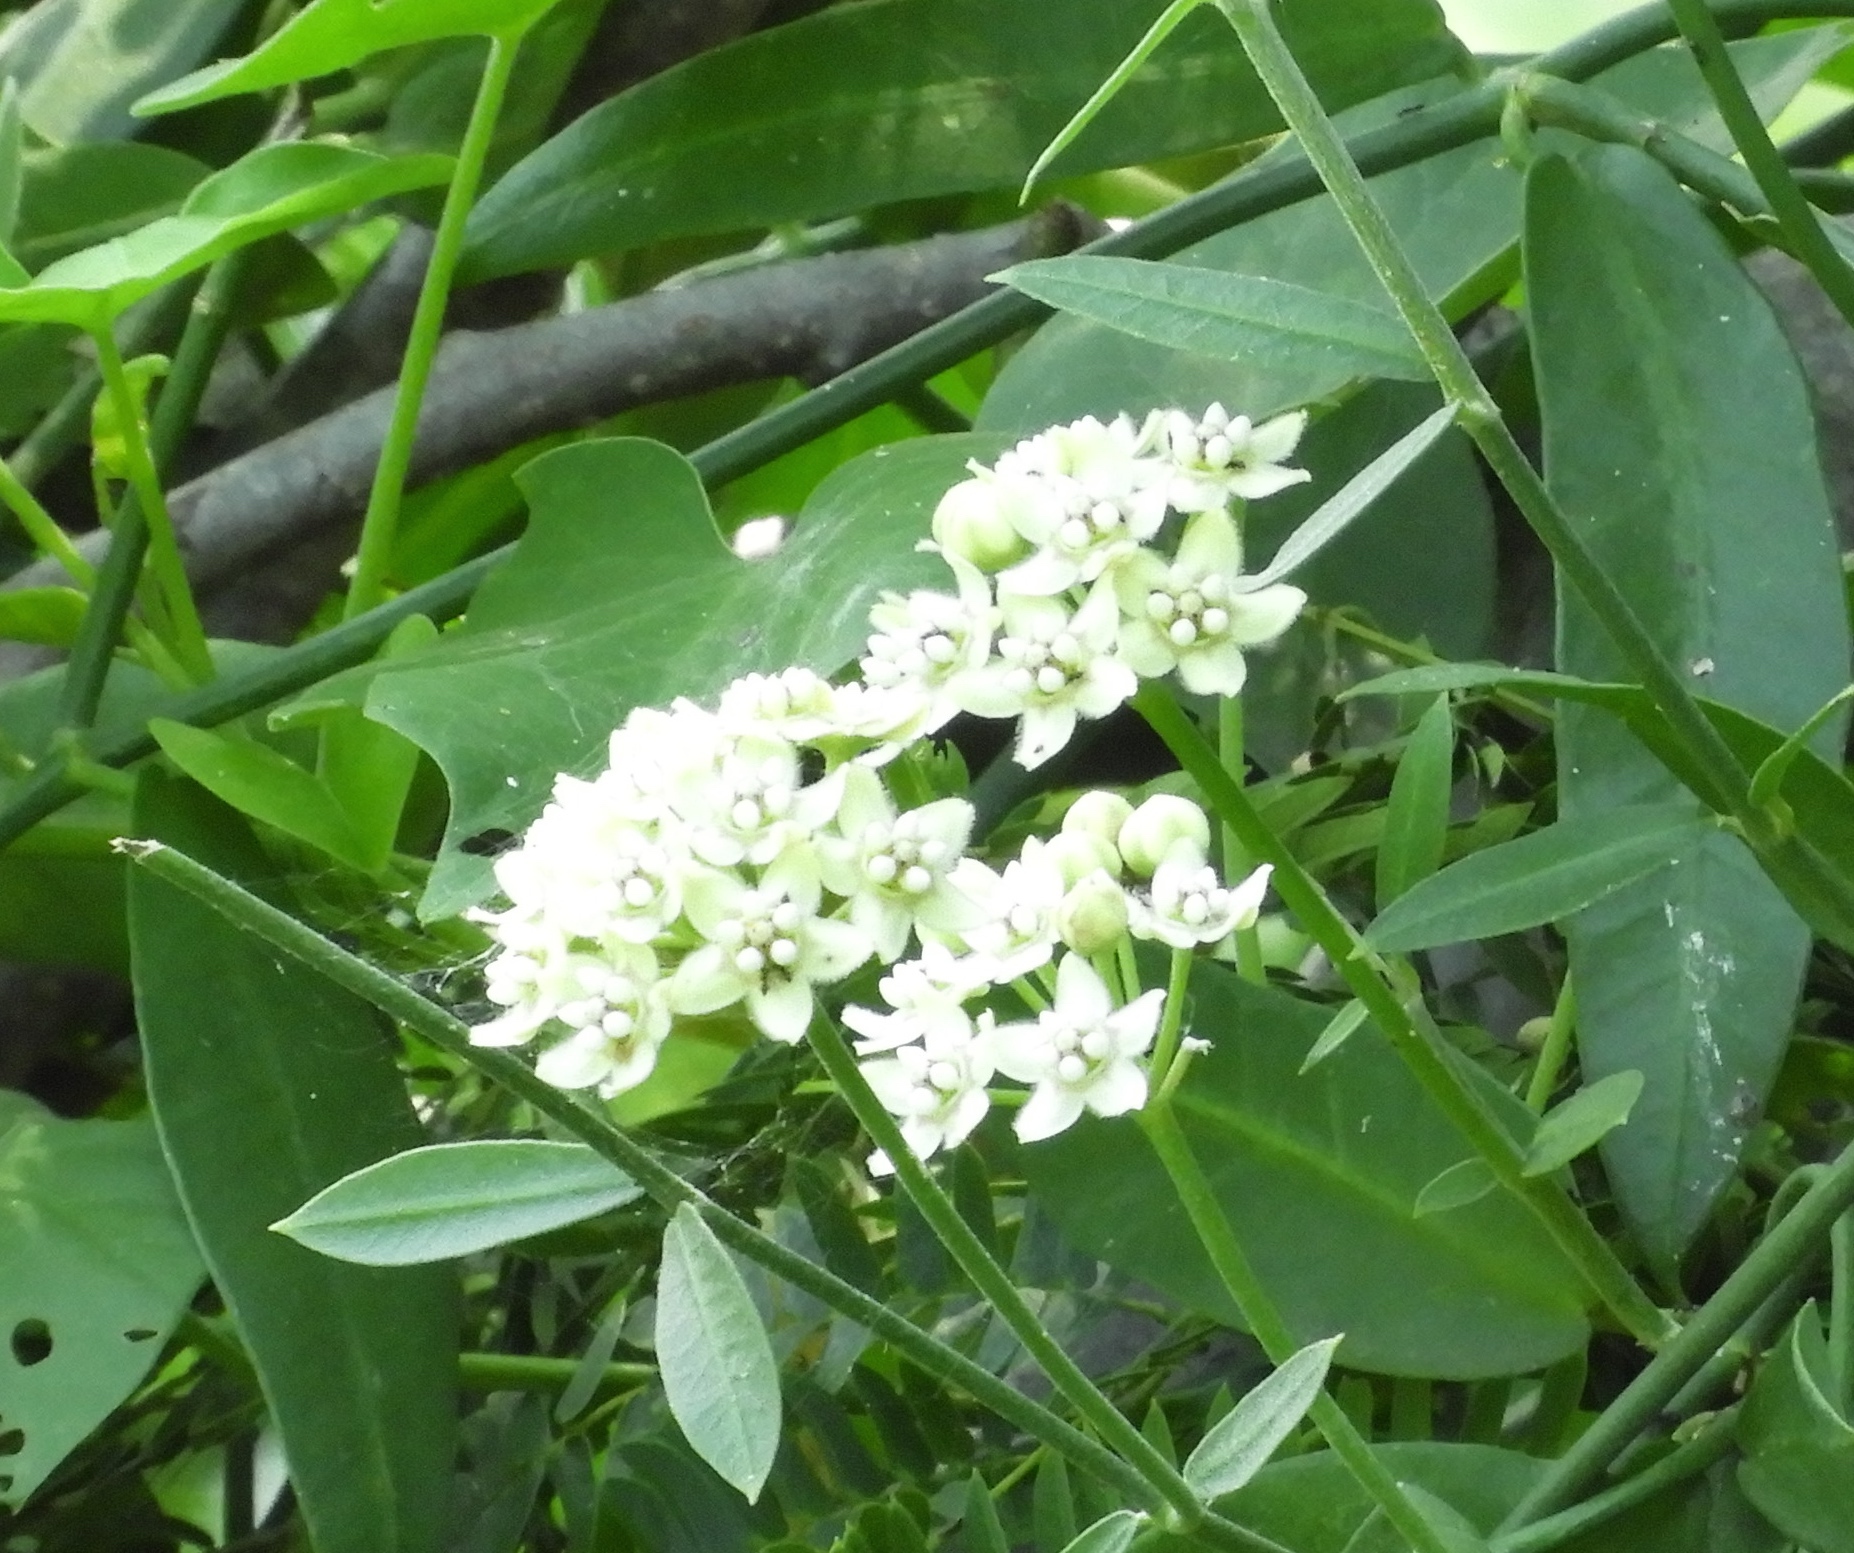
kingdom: Plantae
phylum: Tracheophyta
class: Magnoliopsida
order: Gentianales
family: Apocynaceae
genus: Funastrum
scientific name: Funastrum clausum
